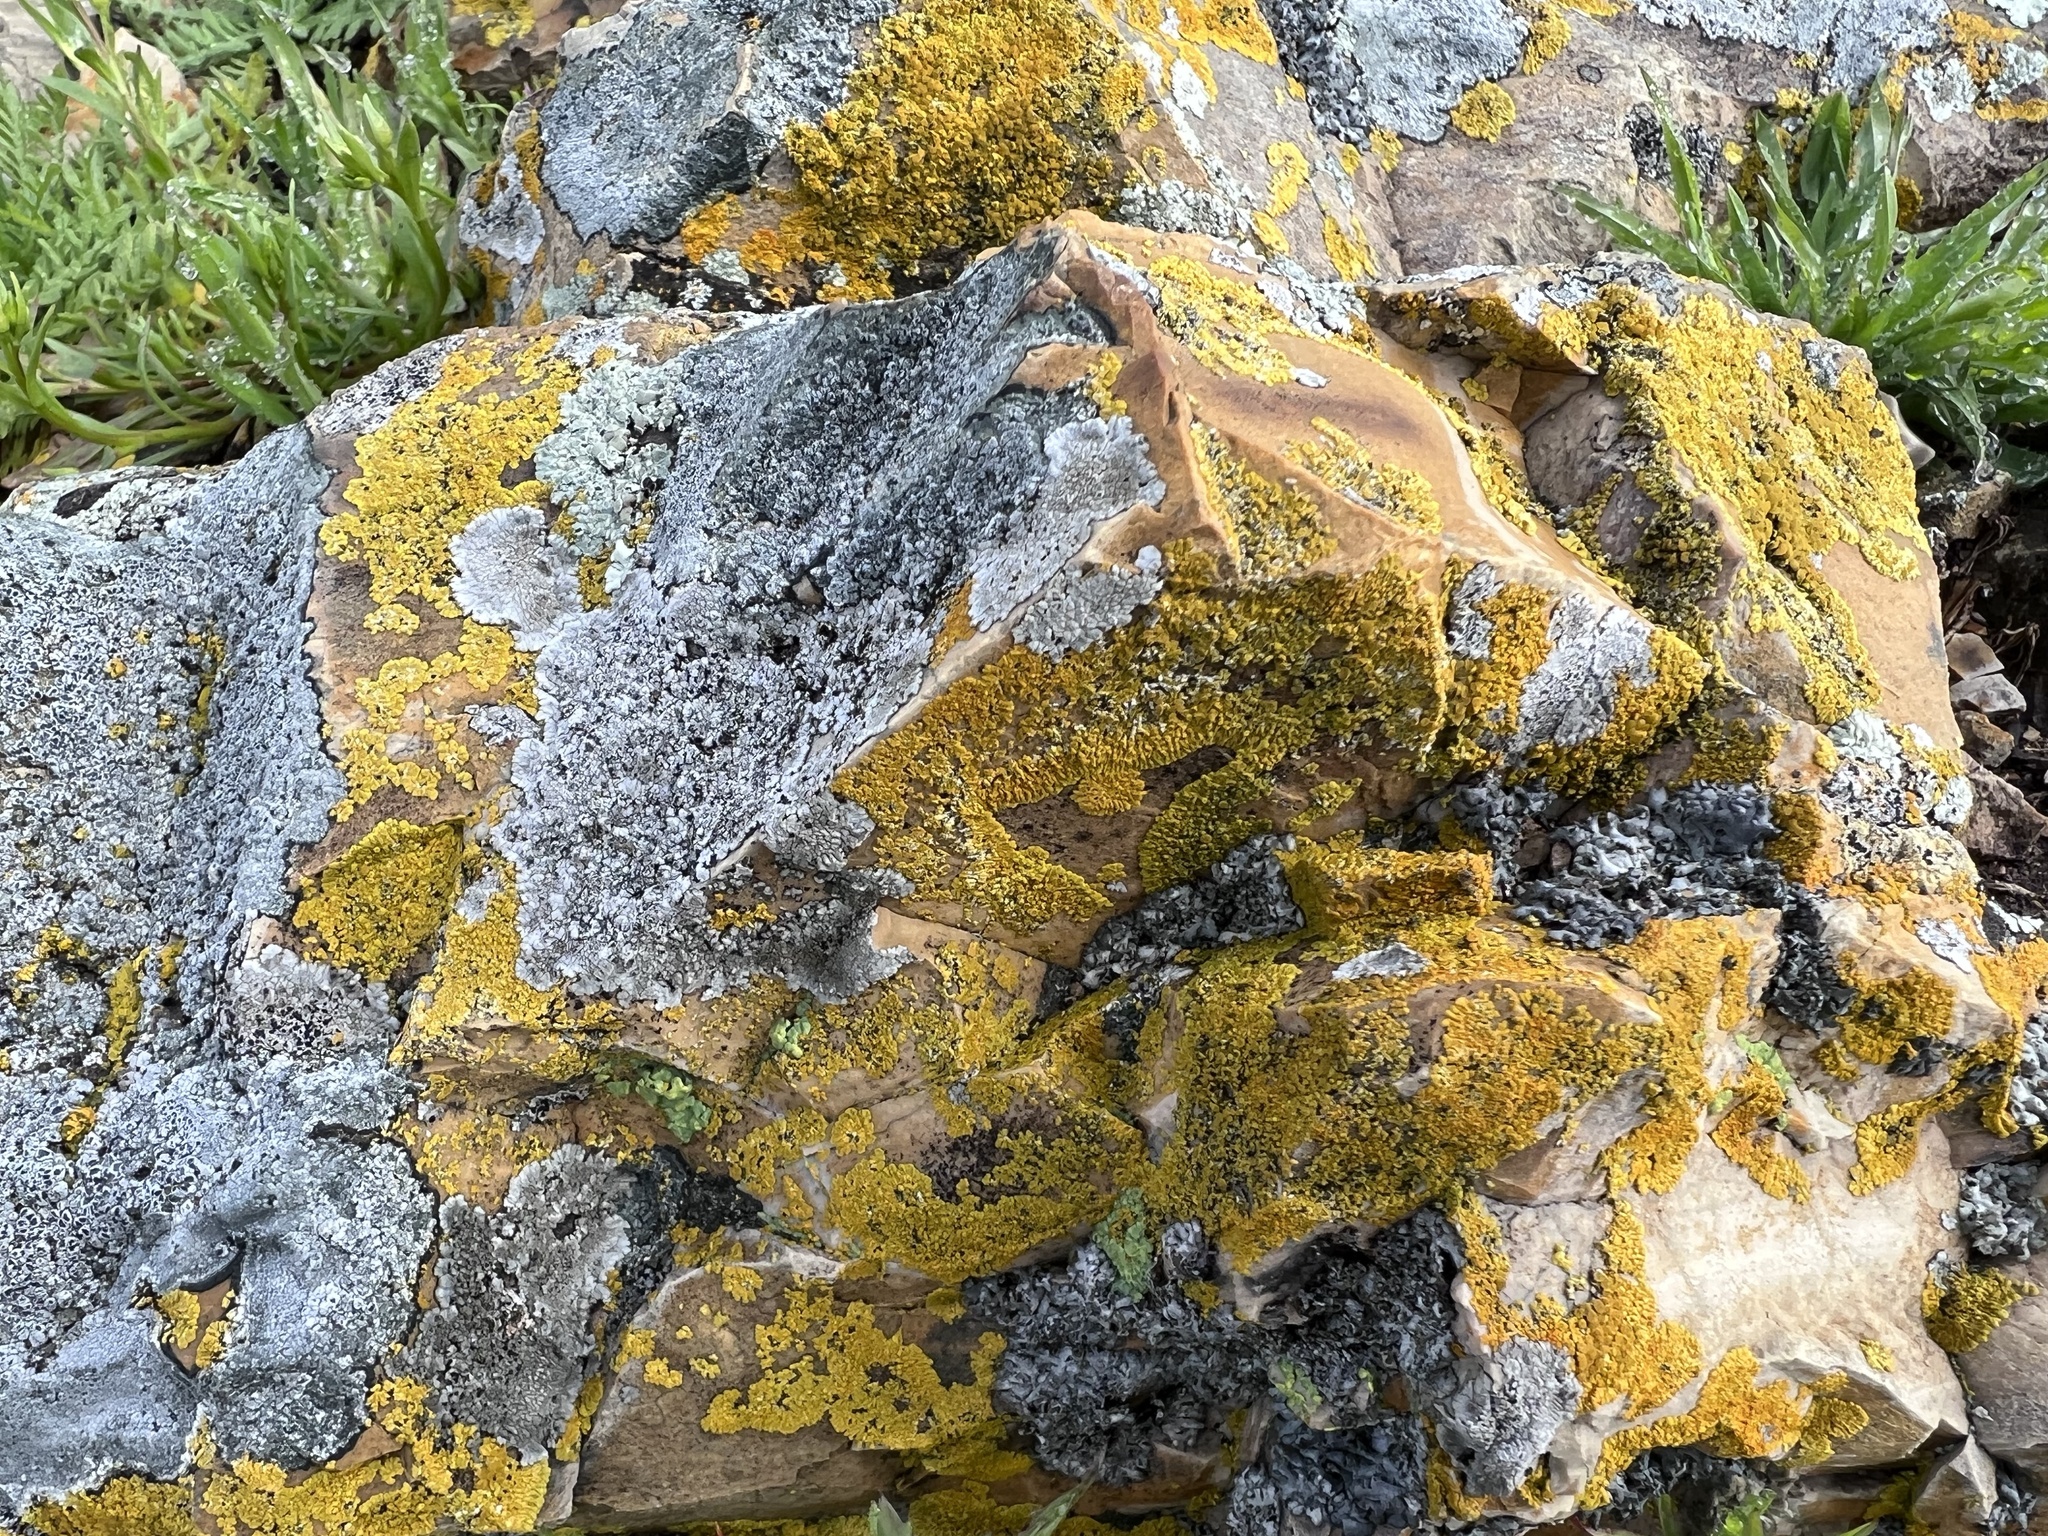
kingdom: Fungi
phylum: Ascomycota
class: Lecanoromycetes
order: Caliciales
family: Caliciaceae
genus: Dimelaena
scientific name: Dimelaena radiata
